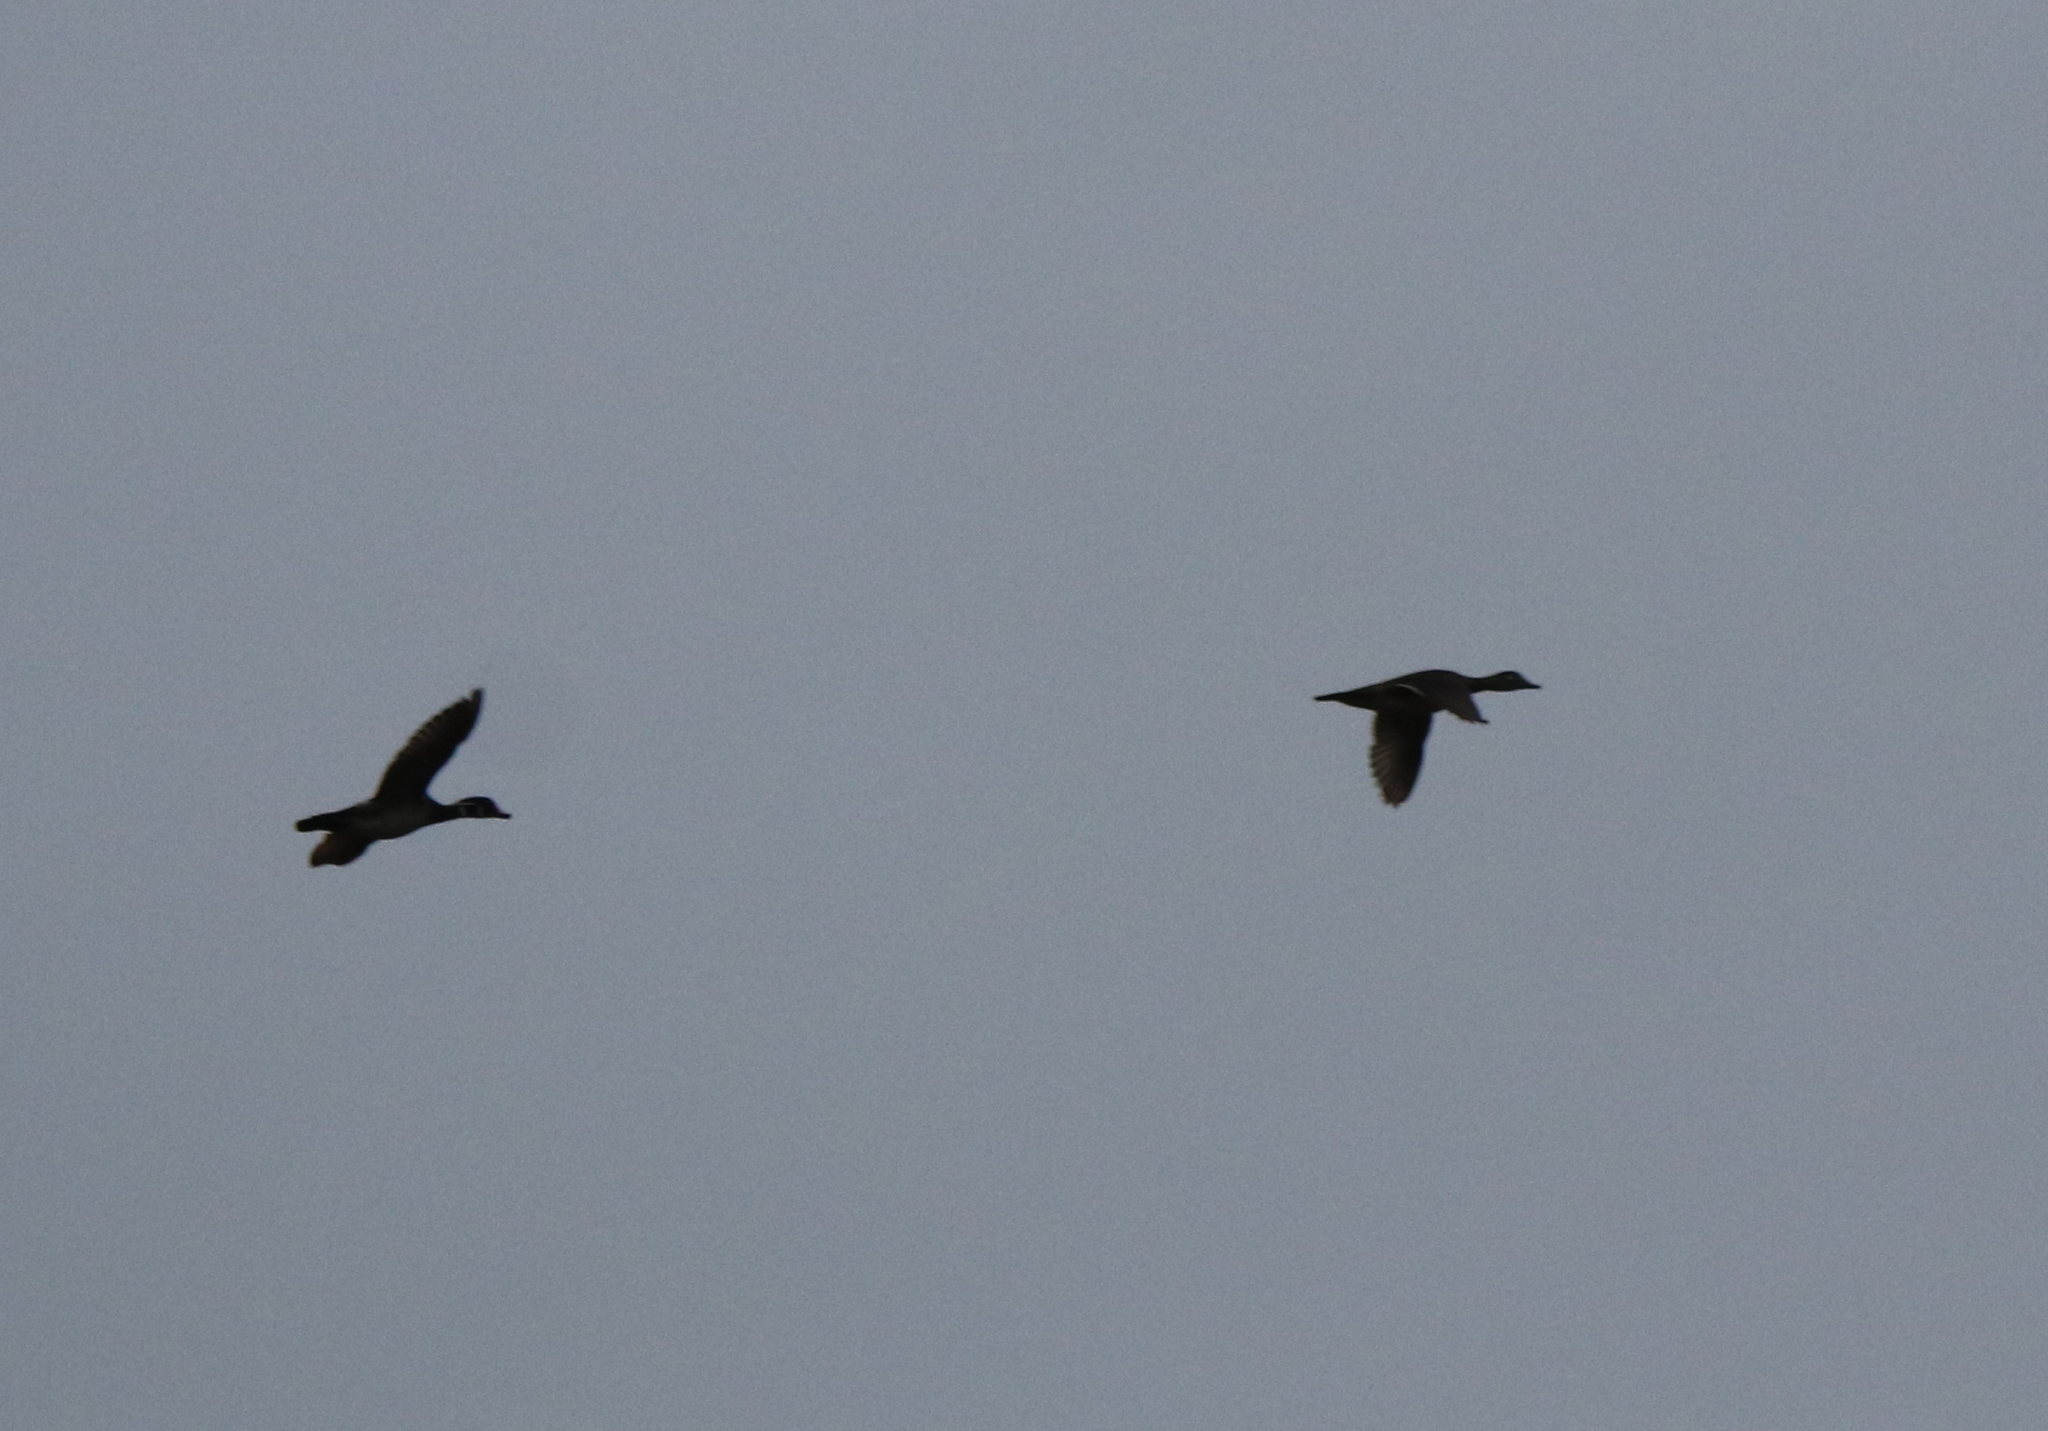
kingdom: Animalia
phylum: Chordata
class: Aves
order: Anseriformes
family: Anatidae
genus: Aix
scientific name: Aix sponsa
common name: Wood duck
